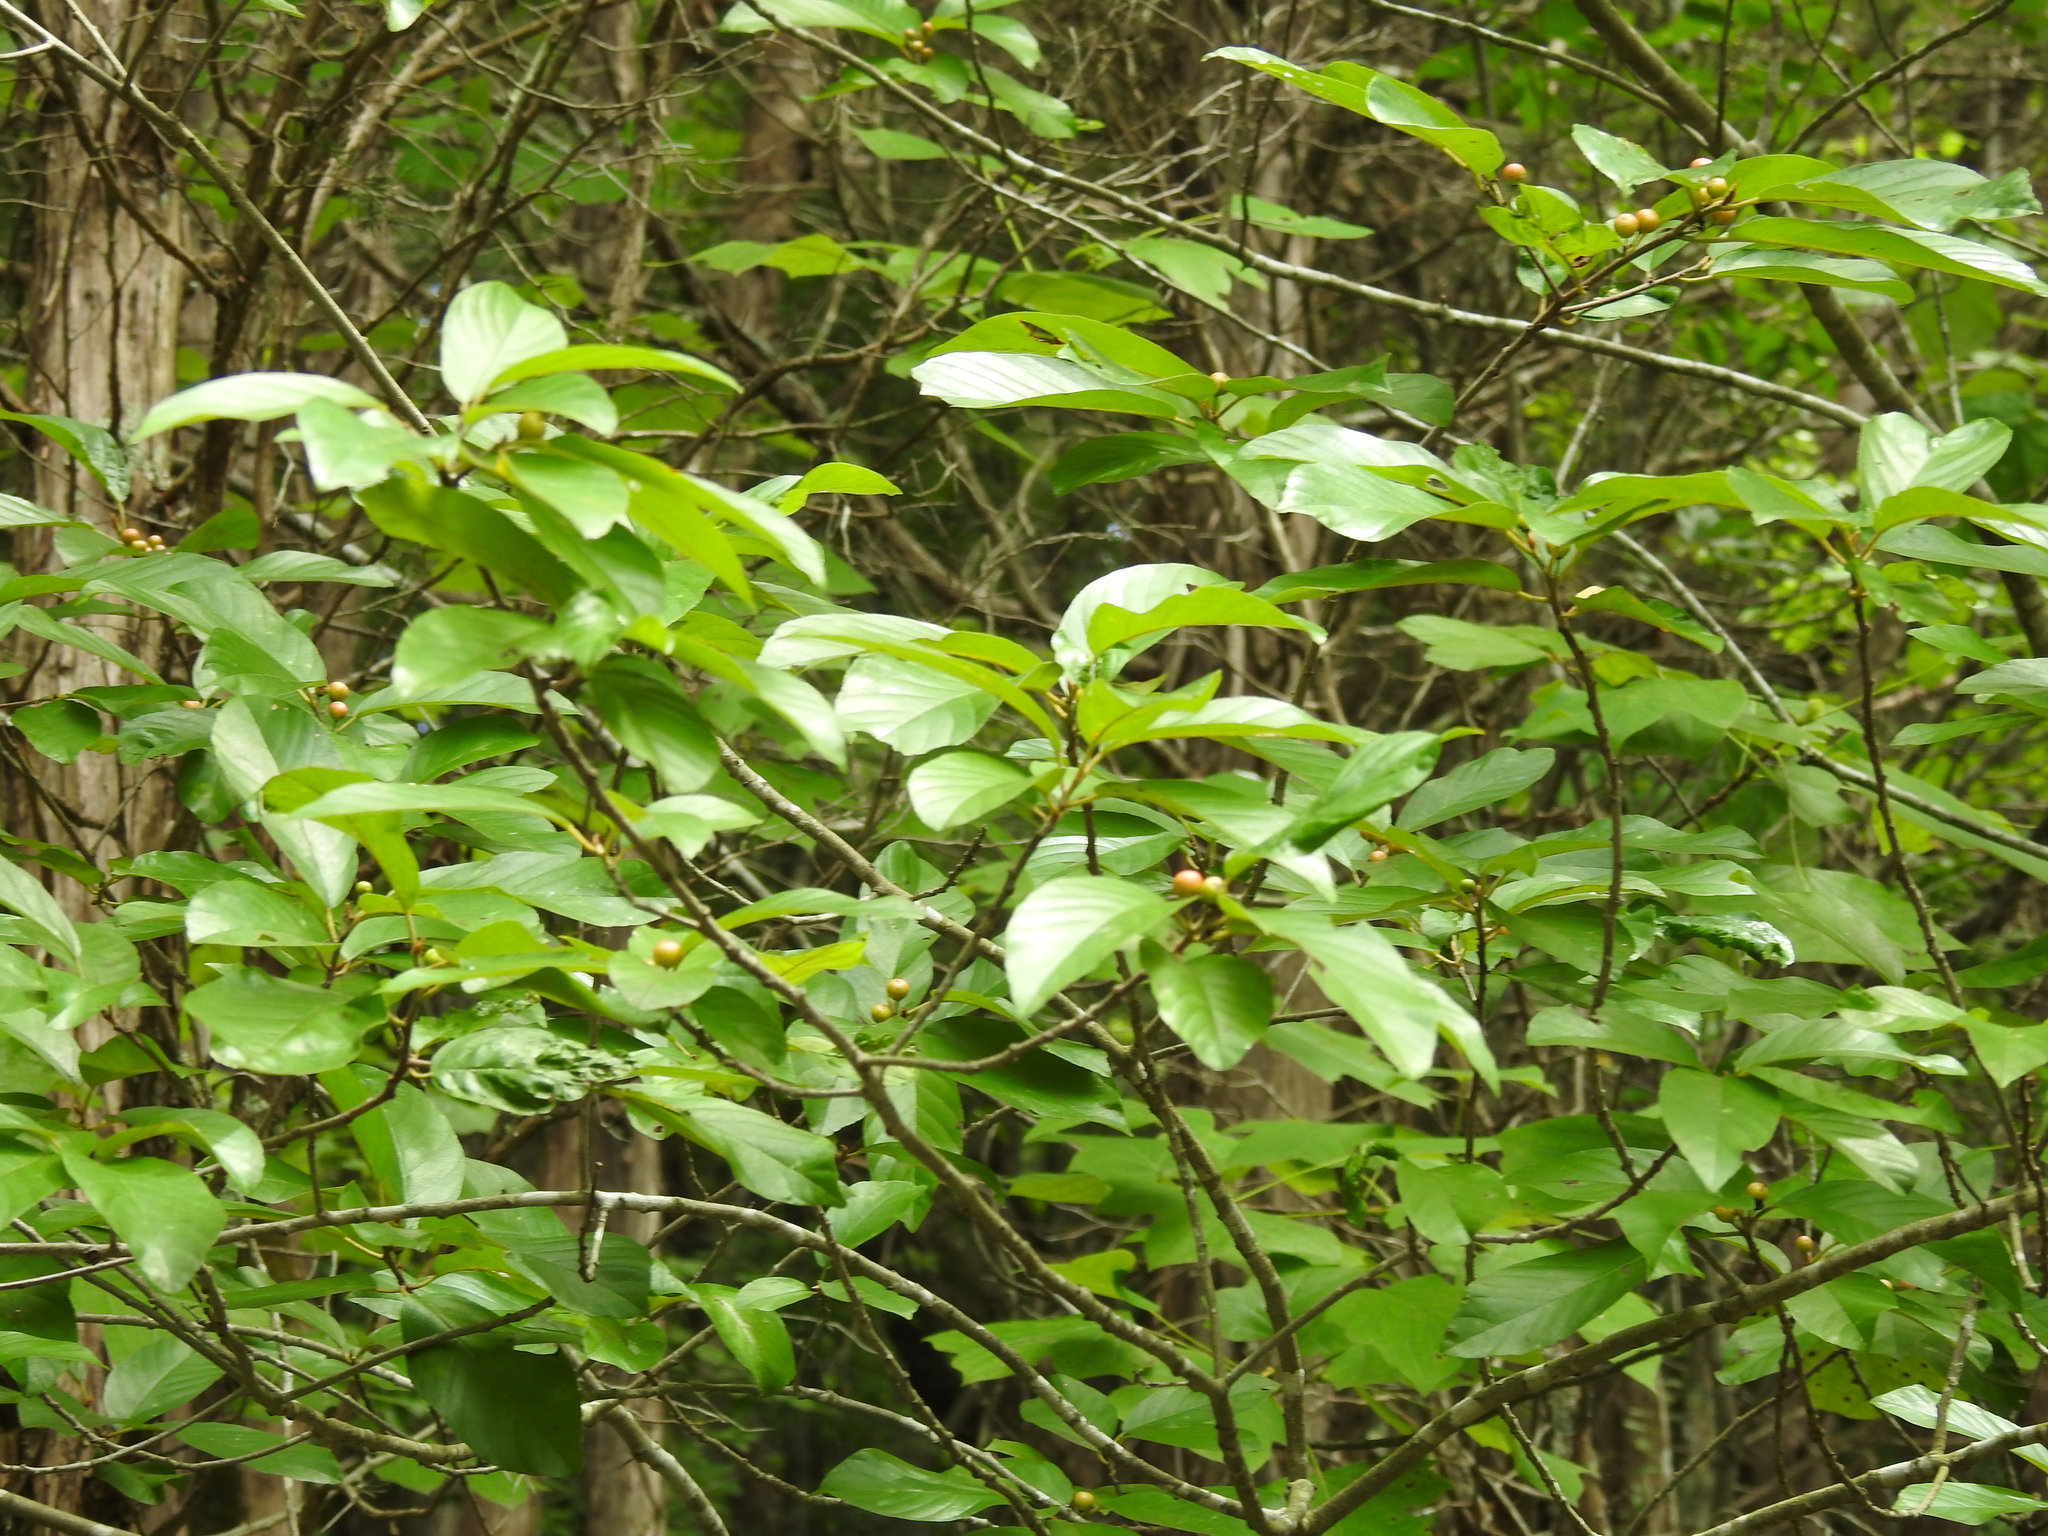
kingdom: Plantae
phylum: Tracheophyta
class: Magnoliopsida
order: Rosales
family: Rhamnaceae
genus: Frangula
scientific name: Frangula caroliniana
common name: Carolina buckthorn
